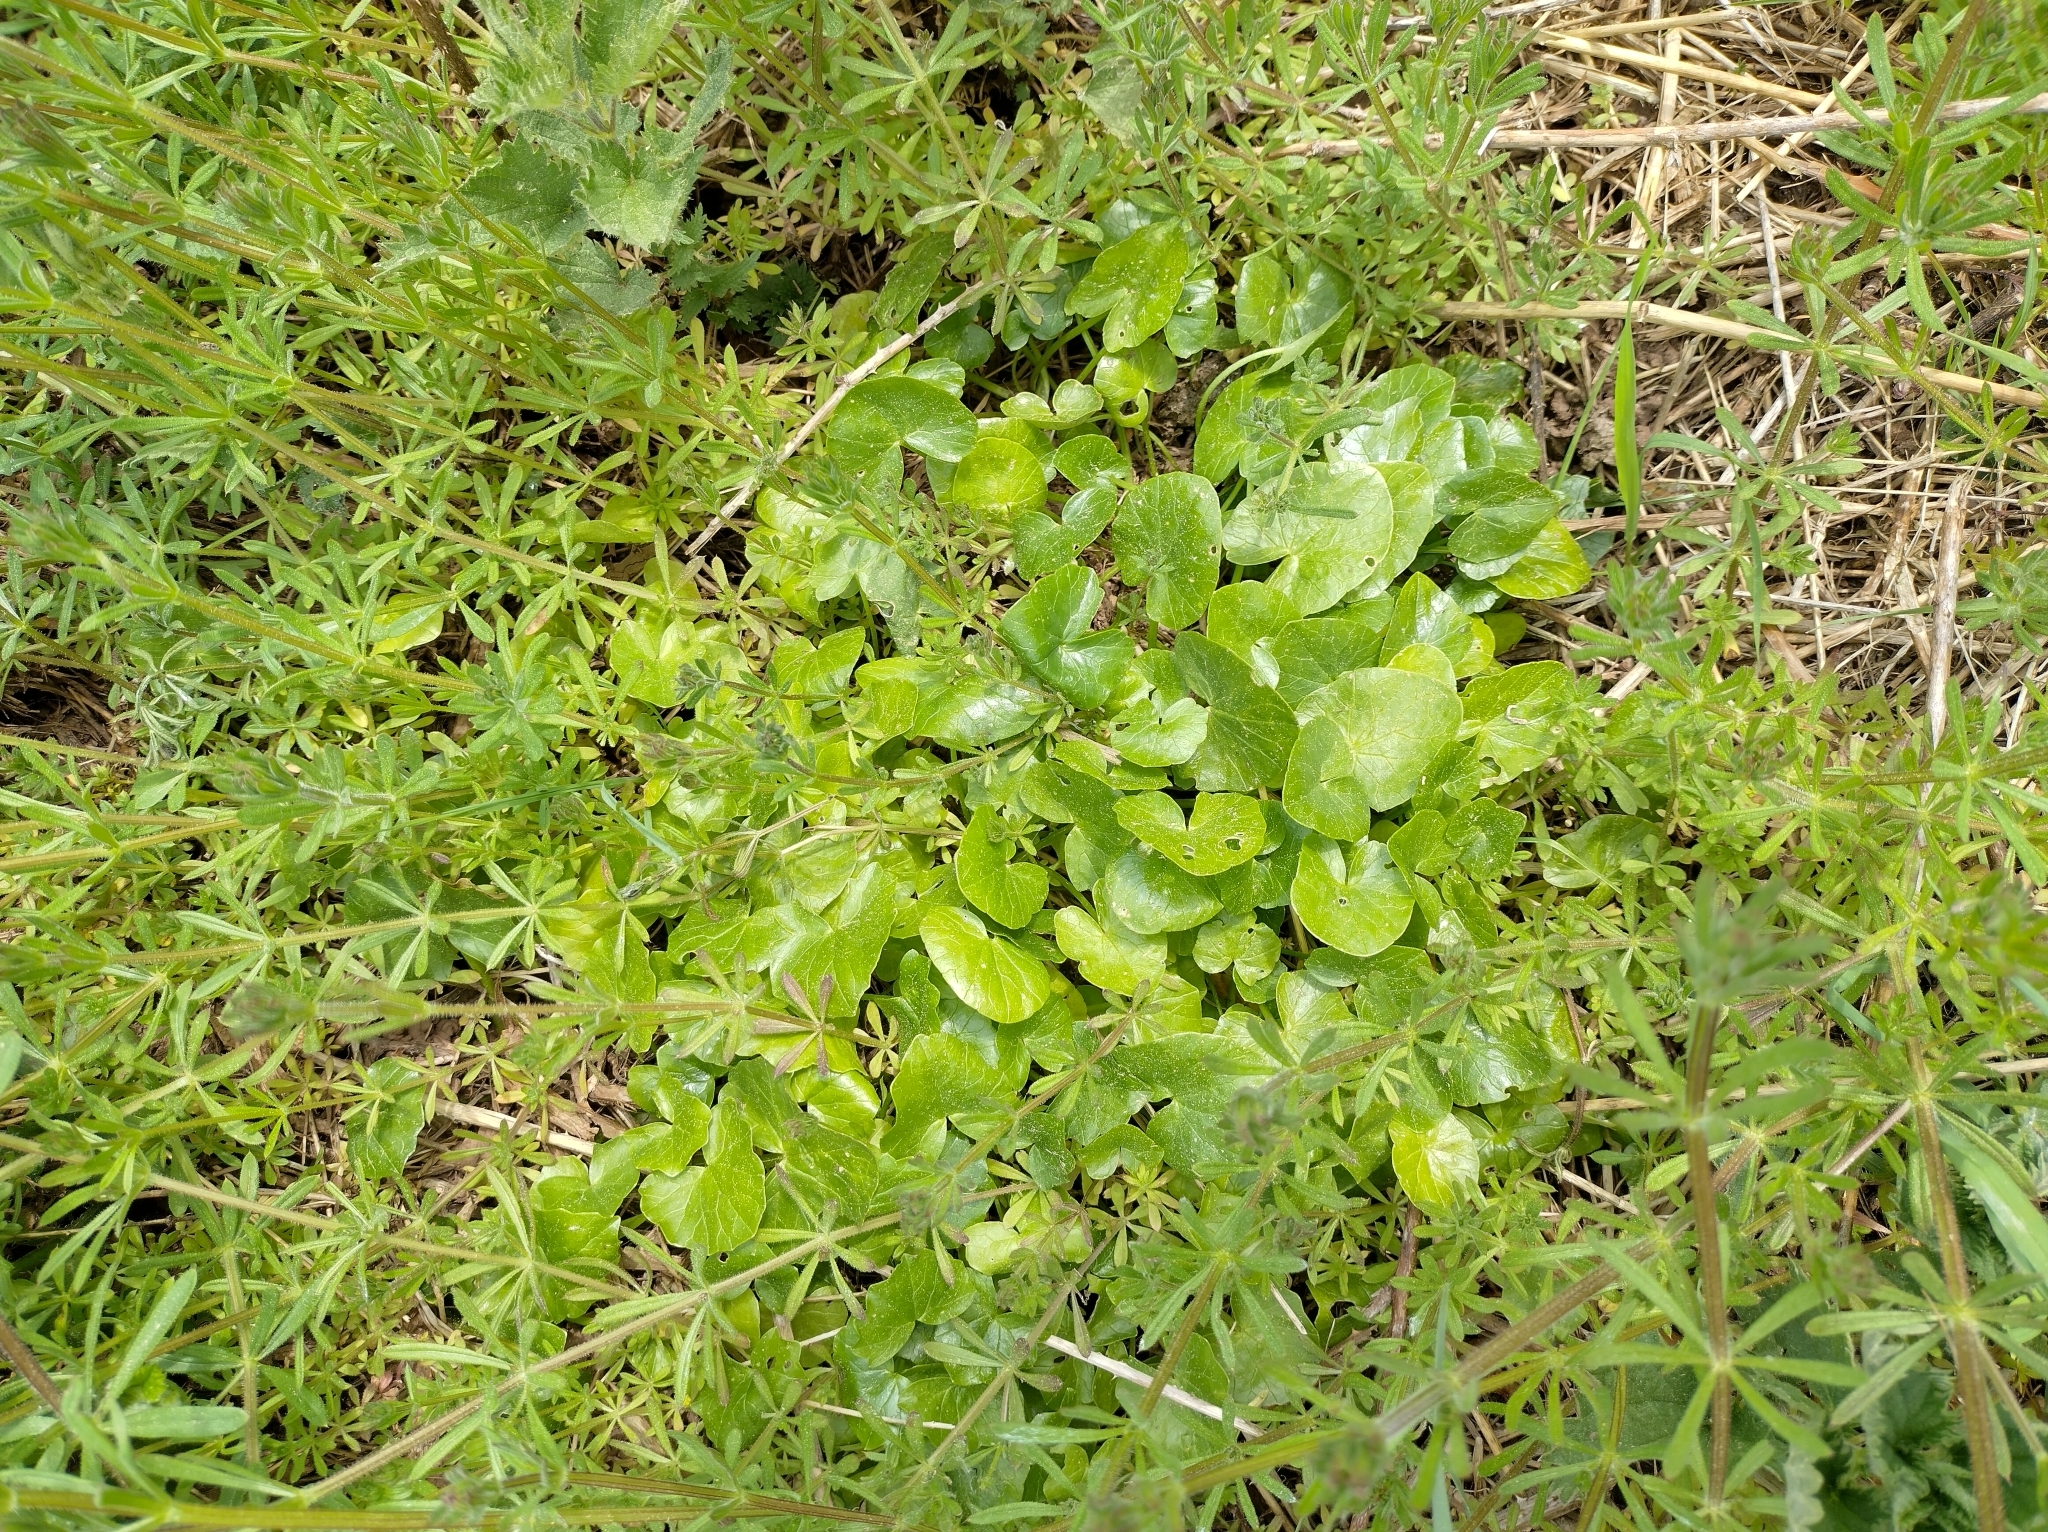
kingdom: Plantae
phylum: Tracheophyta
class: Magnoliopsida
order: Ranunculales
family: Ranunculaceae
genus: Ficaria
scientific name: Ficaria verna
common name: Lesser celandine
